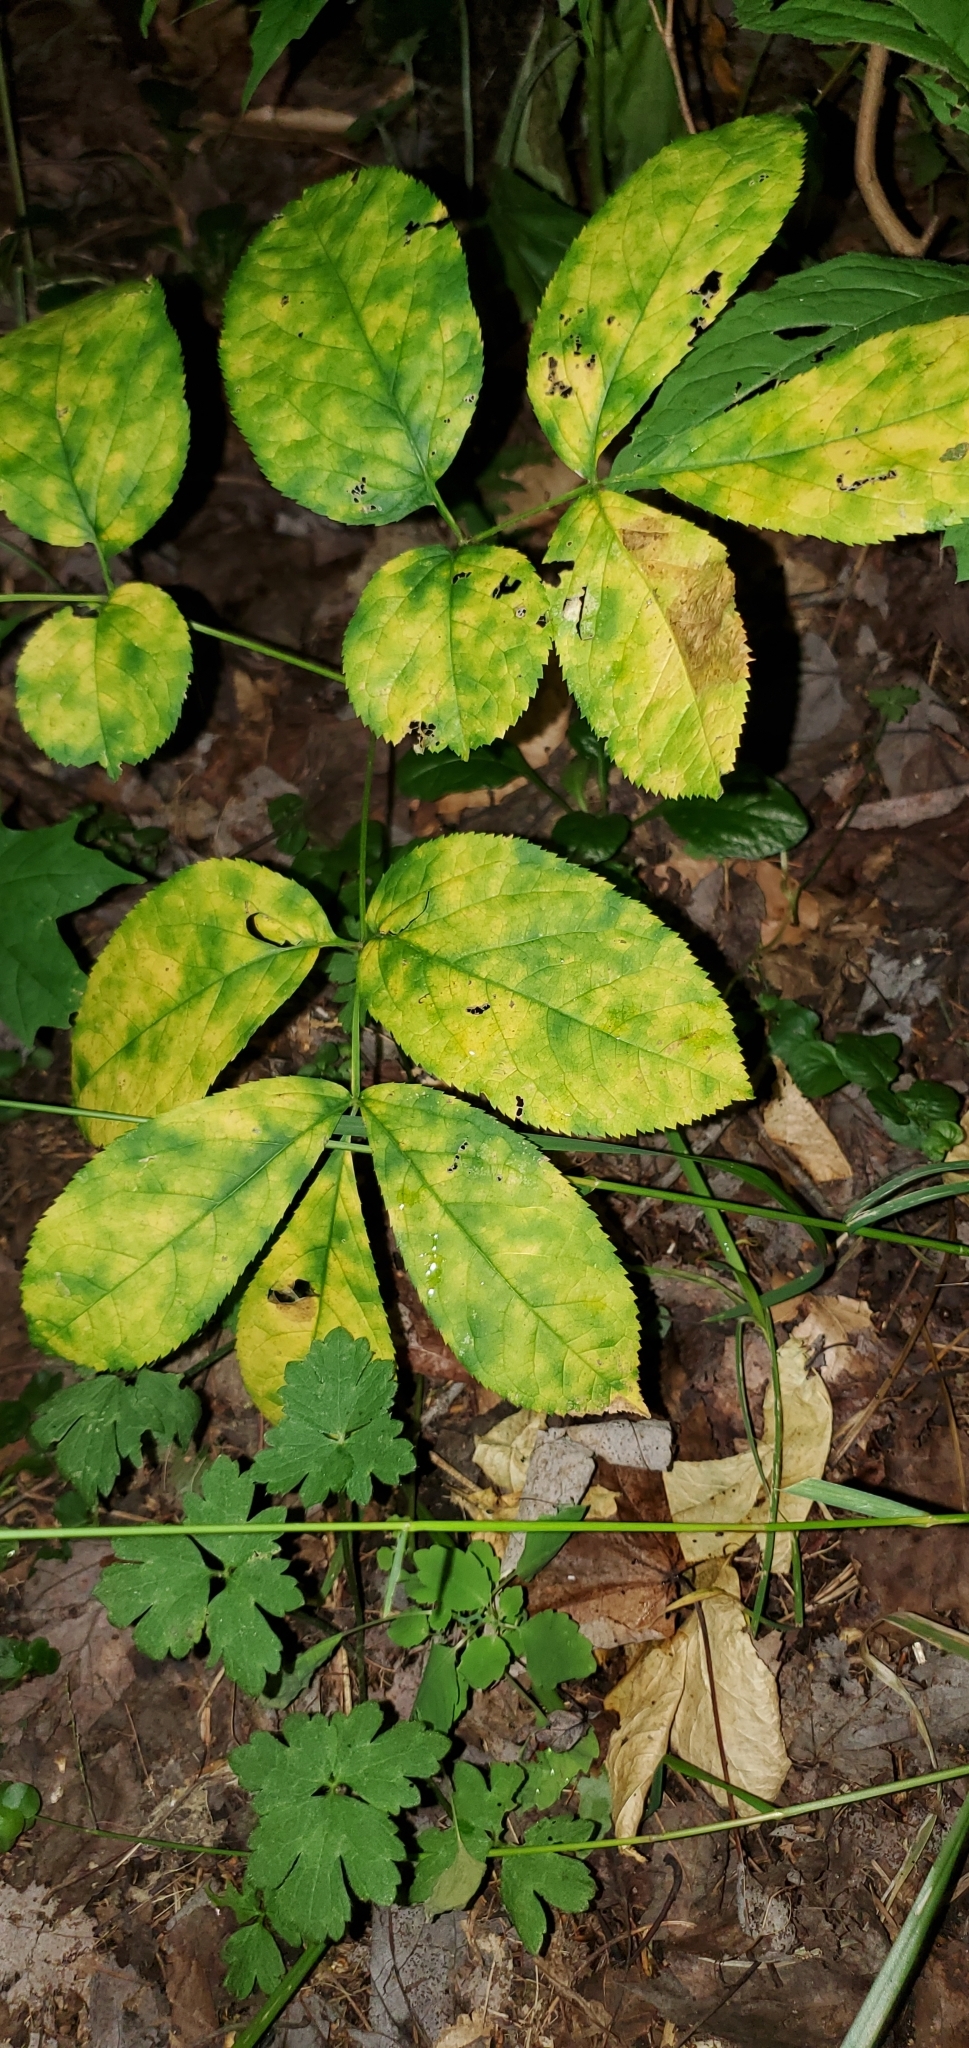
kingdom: Plantae
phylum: Tracheophyta
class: Magnoliopsida
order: Apiales
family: Araliaceae
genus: Aralia
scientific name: Aralia nudicaulis
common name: Wild sarsaparilla
